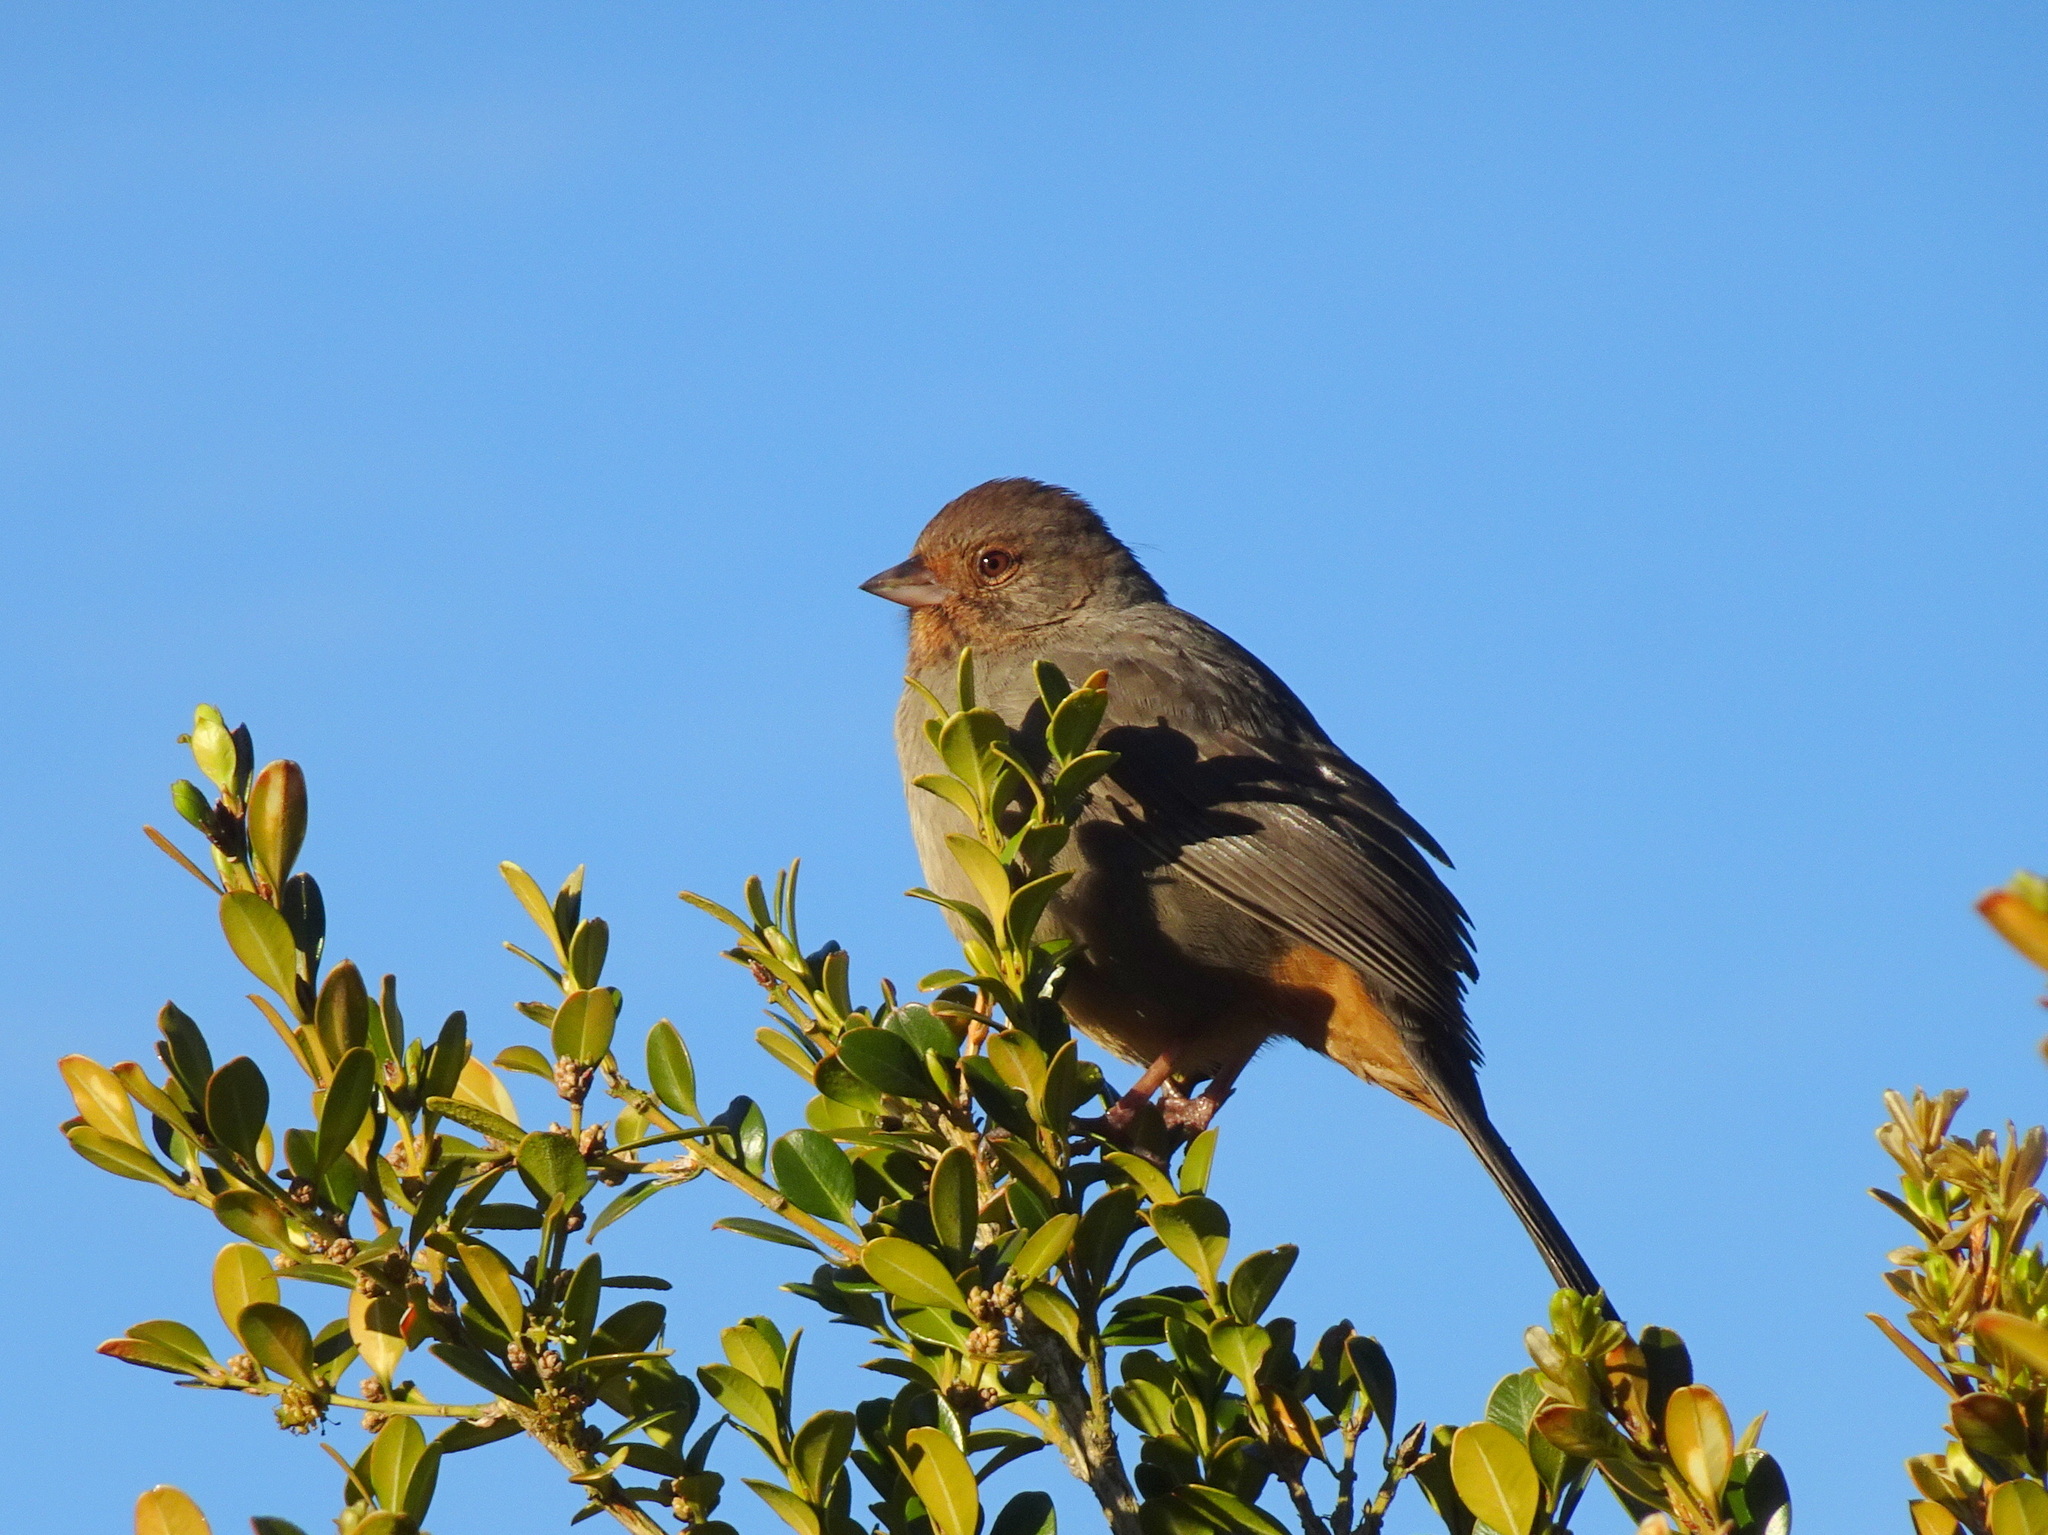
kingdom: Animalia
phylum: Chordata
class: Aves
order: Passeriformes
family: Passerellidae
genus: Melozone
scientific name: Melozone crissalis
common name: California towhee
